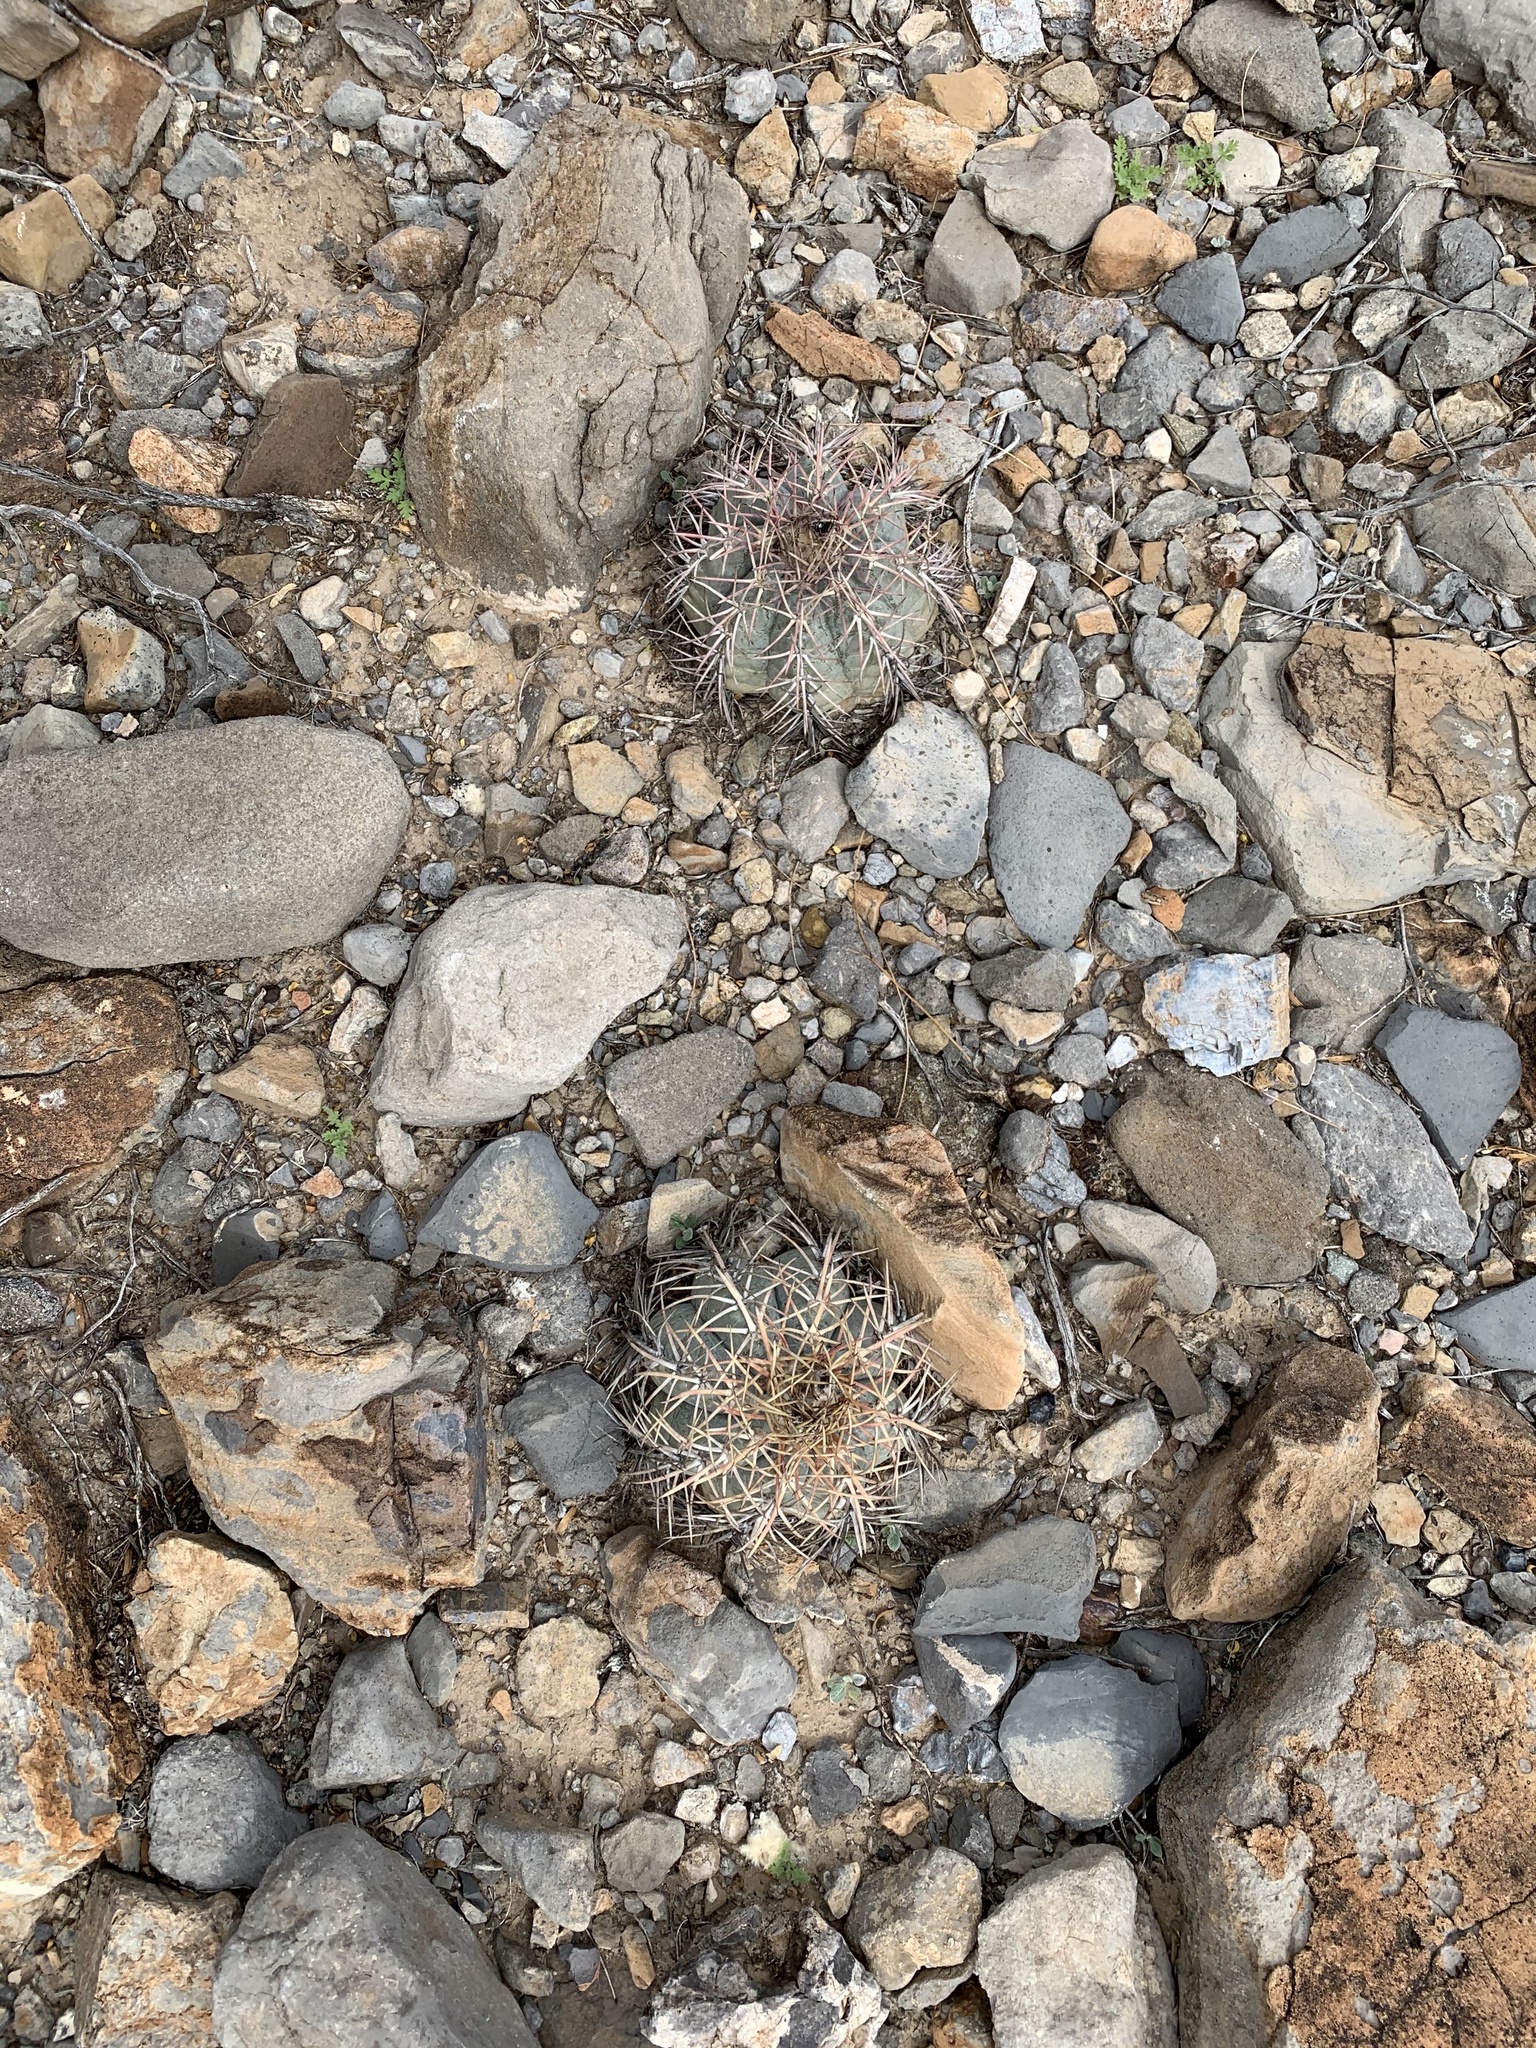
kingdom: Plantae
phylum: Tracheophyta
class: Magnoliopsida
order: Caryophyllales
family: Cactaceae
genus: Echinocactus
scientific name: Echinocactus horizonthalonius
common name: Devilshead
